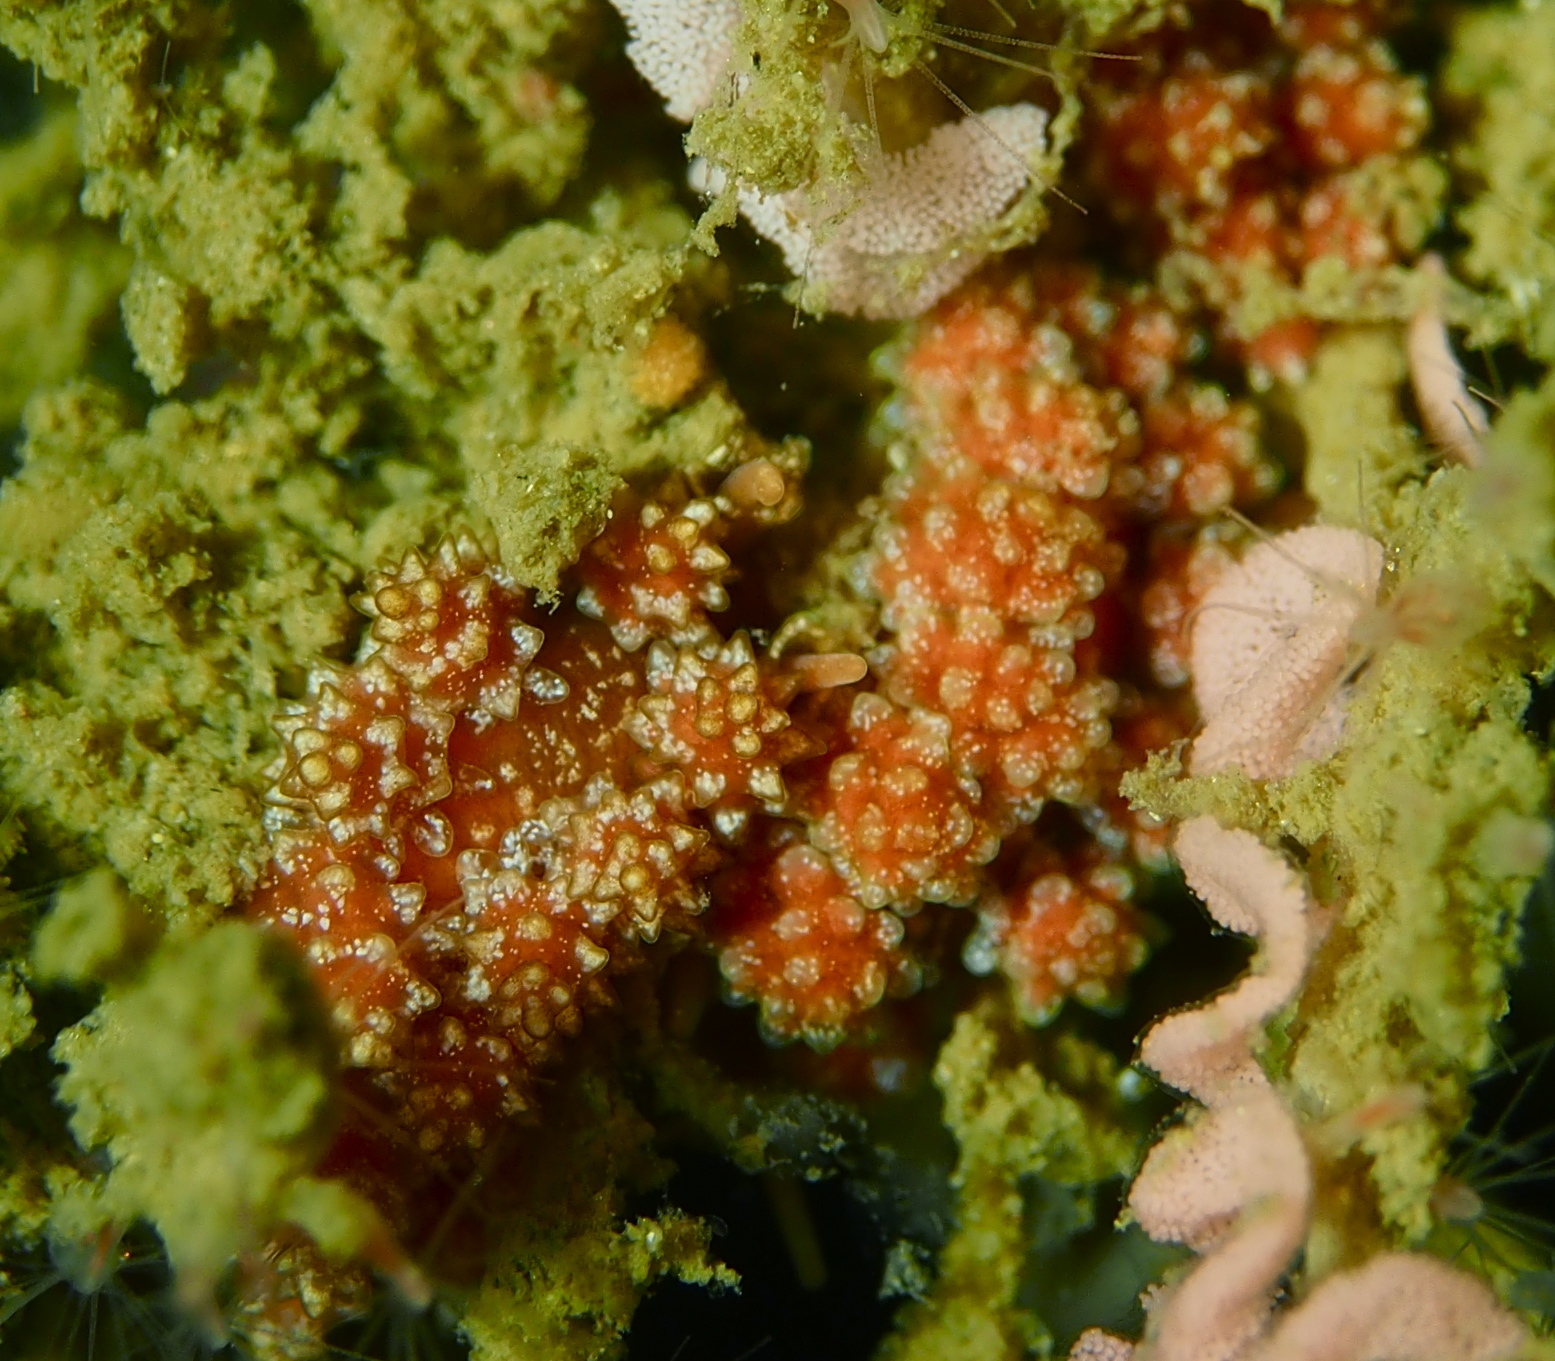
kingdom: Animalia
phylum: Mollusca
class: Gastropoda
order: Nudibranchia
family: Dotidae
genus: Doto
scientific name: Doto fragilis
